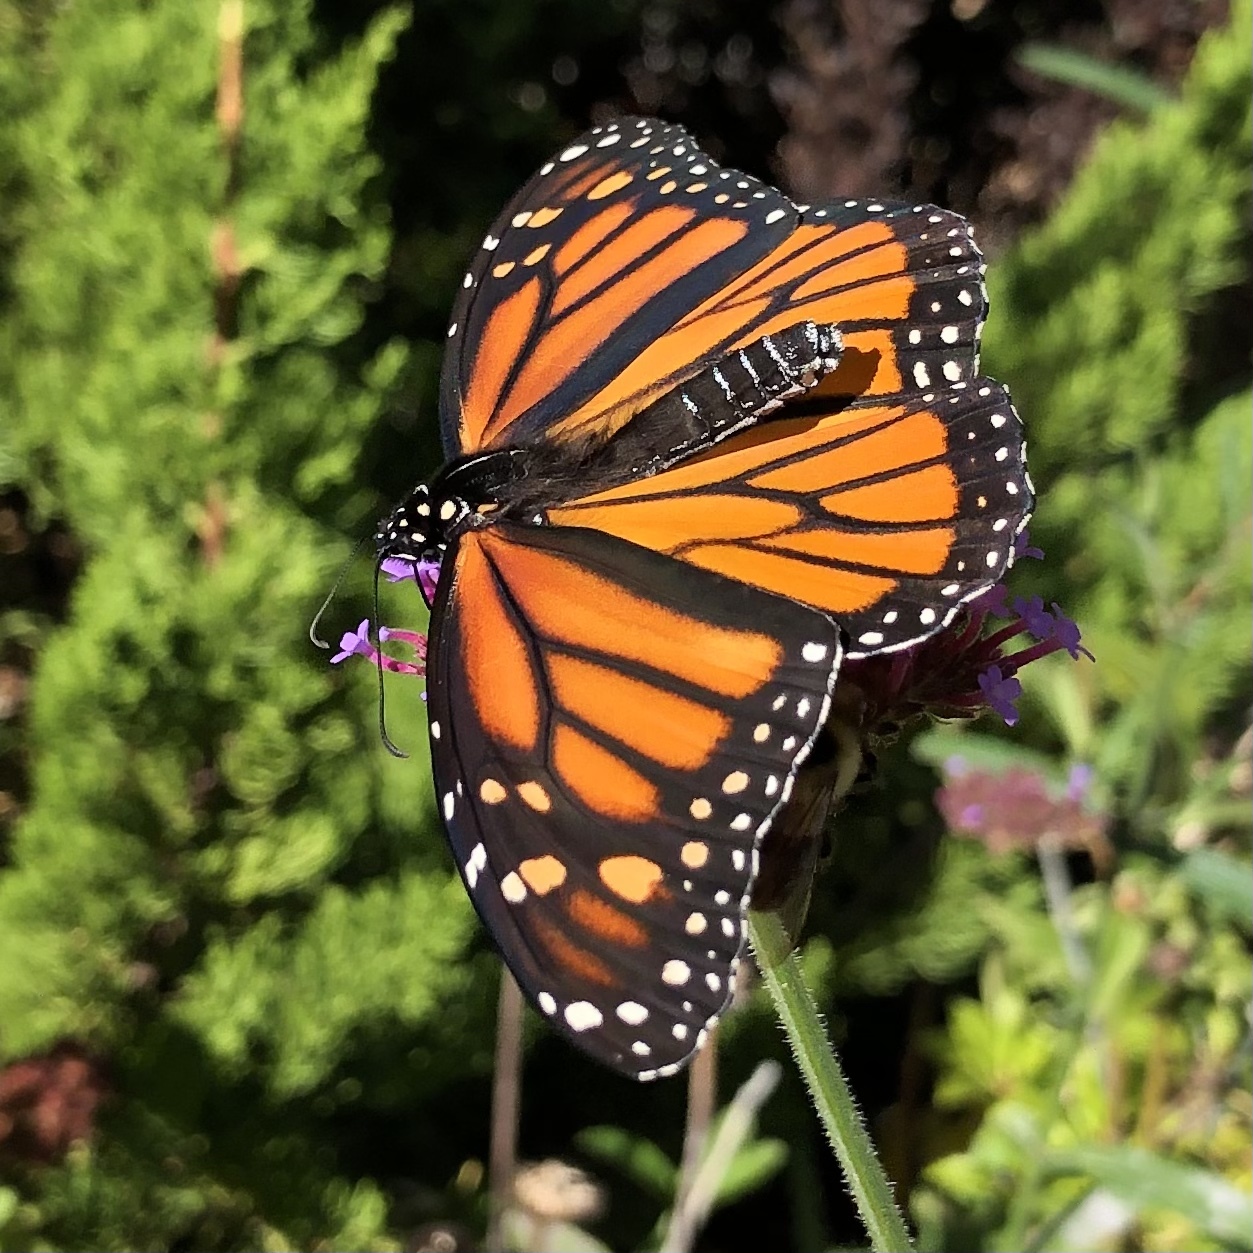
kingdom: Animalia
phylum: Arthropoda
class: Insecta
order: Lepidoptera
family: Nymphalidae
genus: Danaus
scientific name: Danaus plexippus
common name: Monarch
